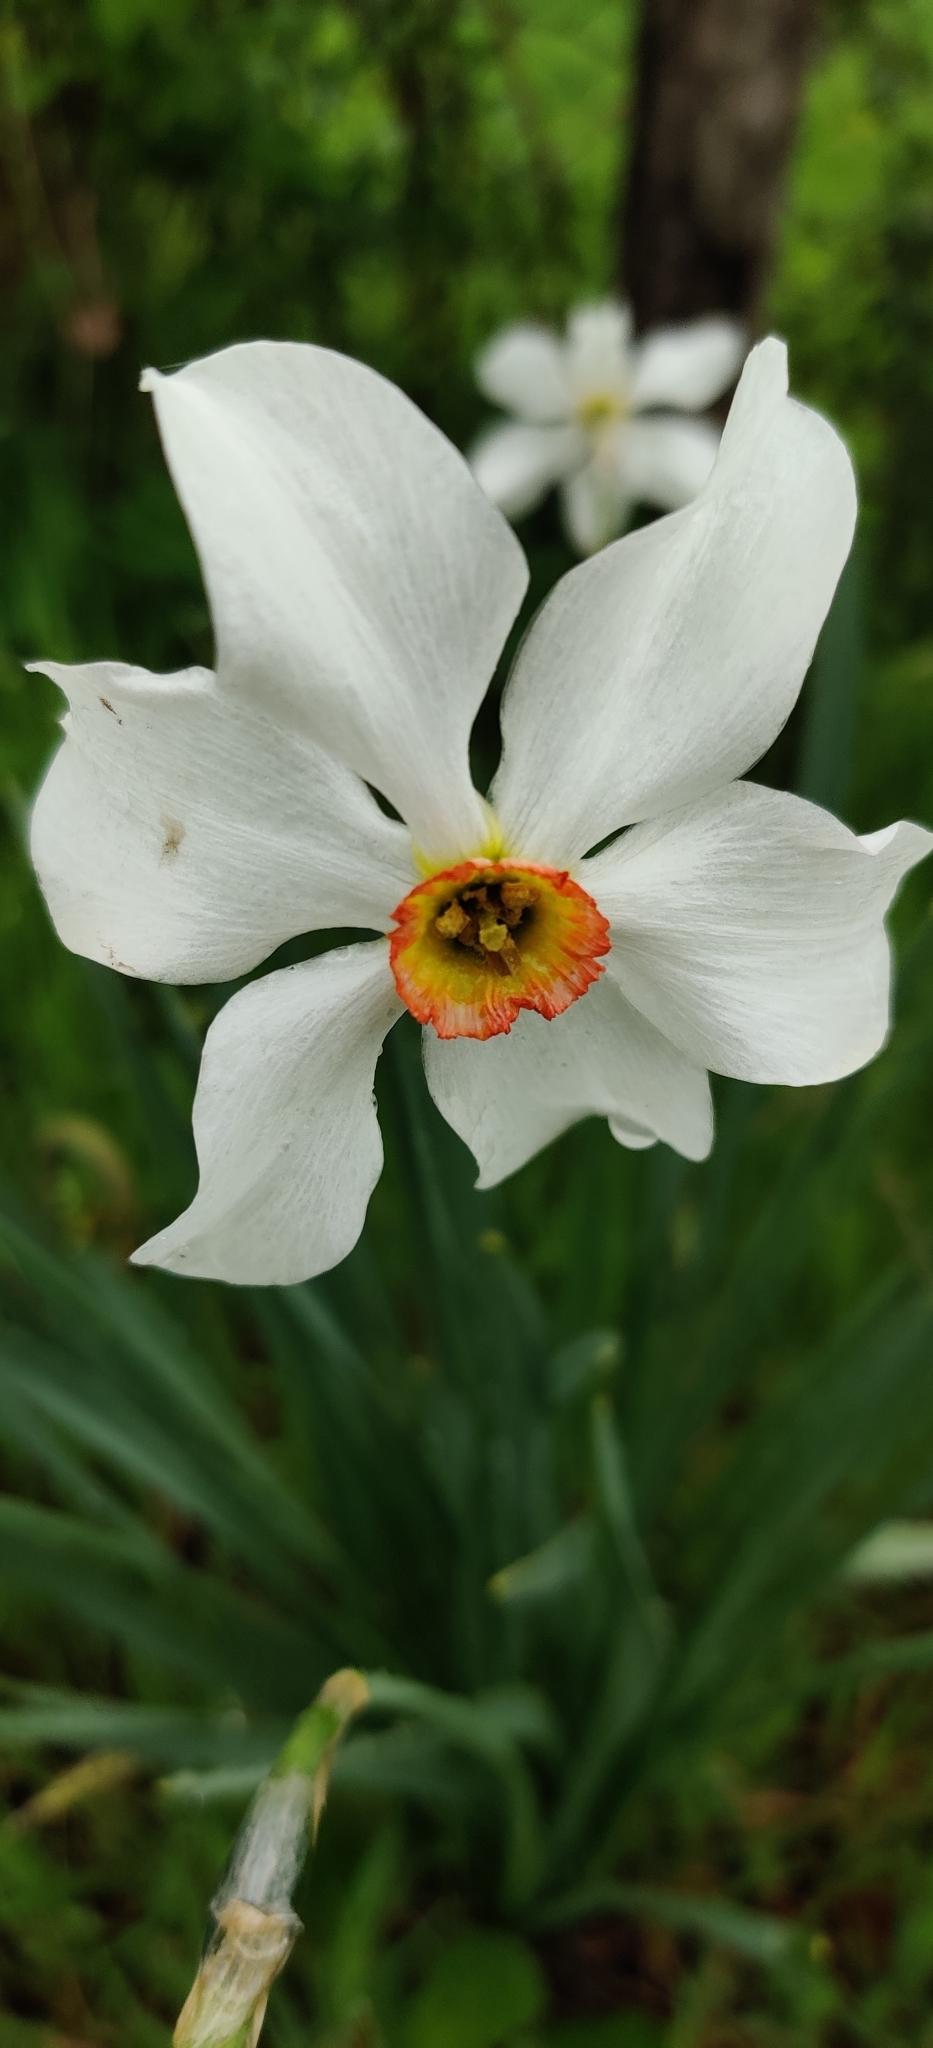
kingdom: Plantae
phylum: Tracheophyta
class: Liliopsida
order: Asparagales
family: Amaryllidaceae
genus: Narcissus
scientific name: Narcissus poeticus
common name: Pheasant's-eye daffodil
